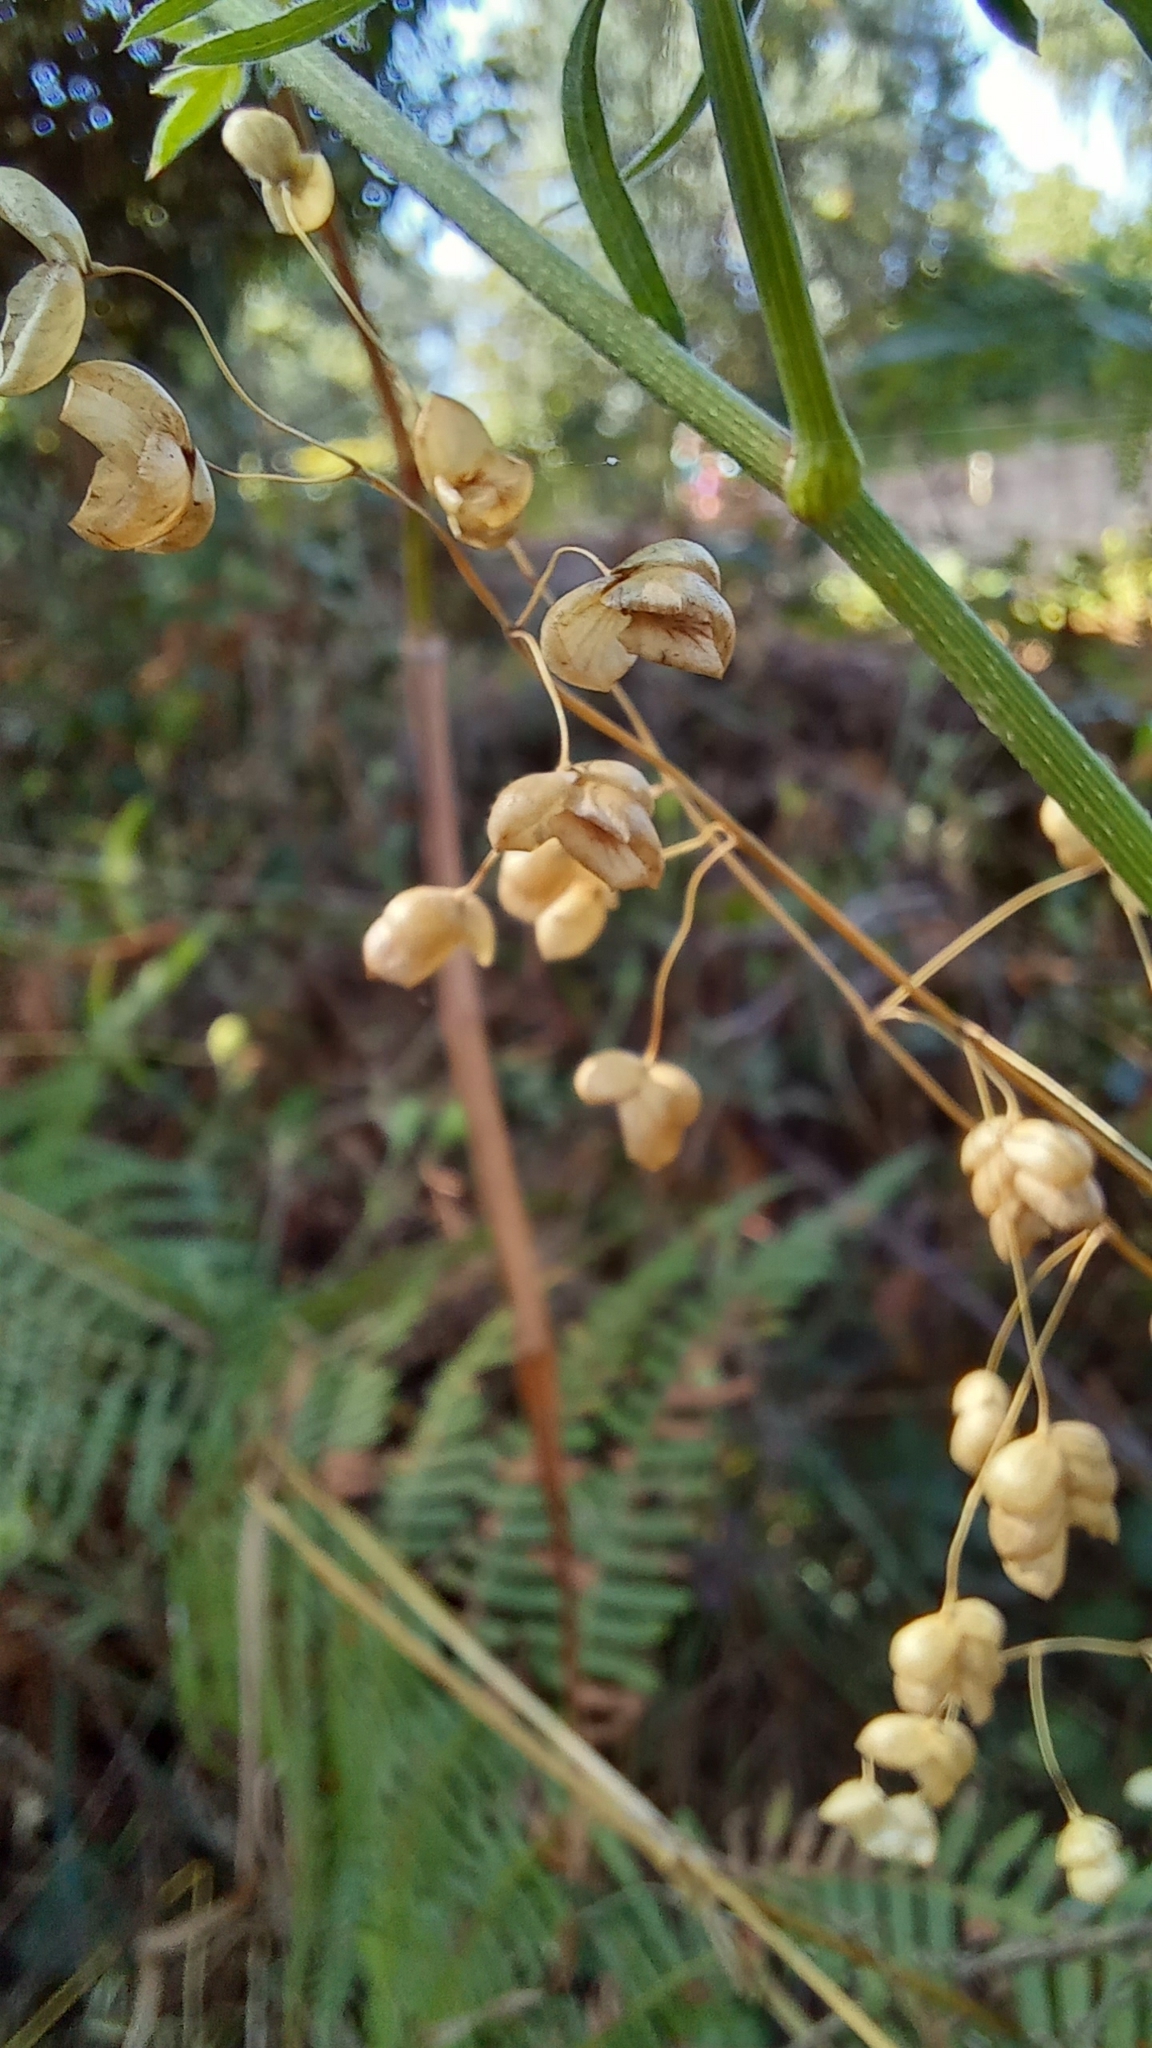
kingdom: Plantae
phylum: Tracheophyta
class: Liliopsida
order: Poales
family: Poaceae
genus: Briza
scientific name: Briza maxima
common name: Big quakinggrass
